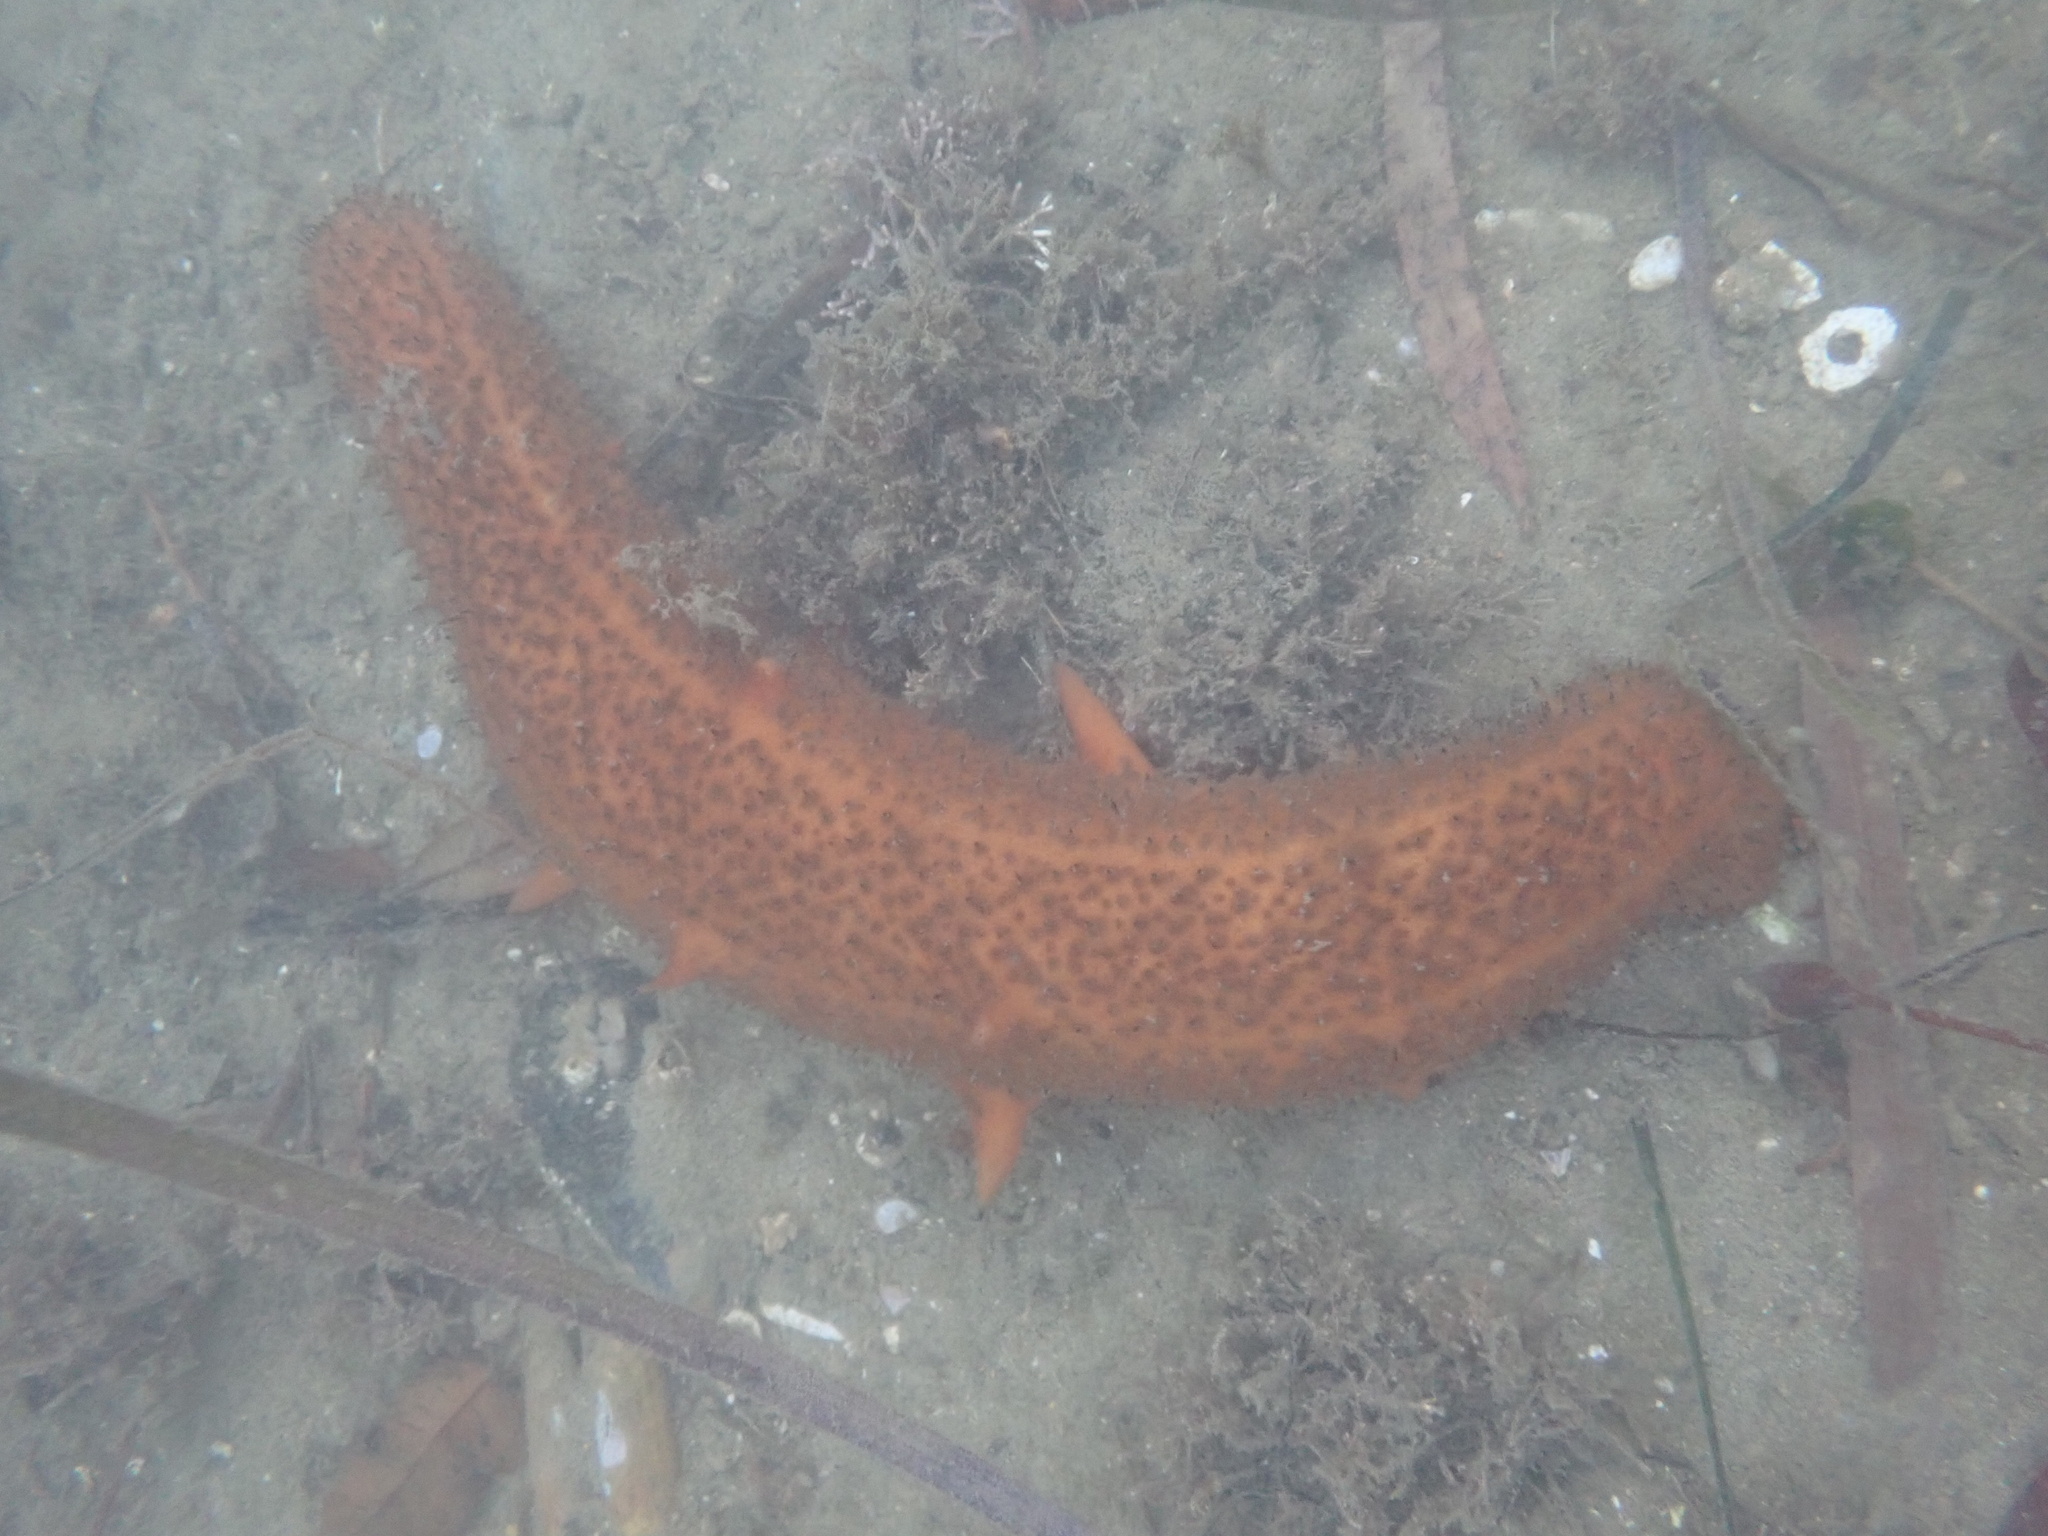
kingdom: Animalia
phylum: Echinodermata
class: Holothuroidea
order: Synallactida
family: Stichopodidae
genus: Apostichopus
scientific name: Apostichopus parvimensis
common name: Warty sea cucumber
